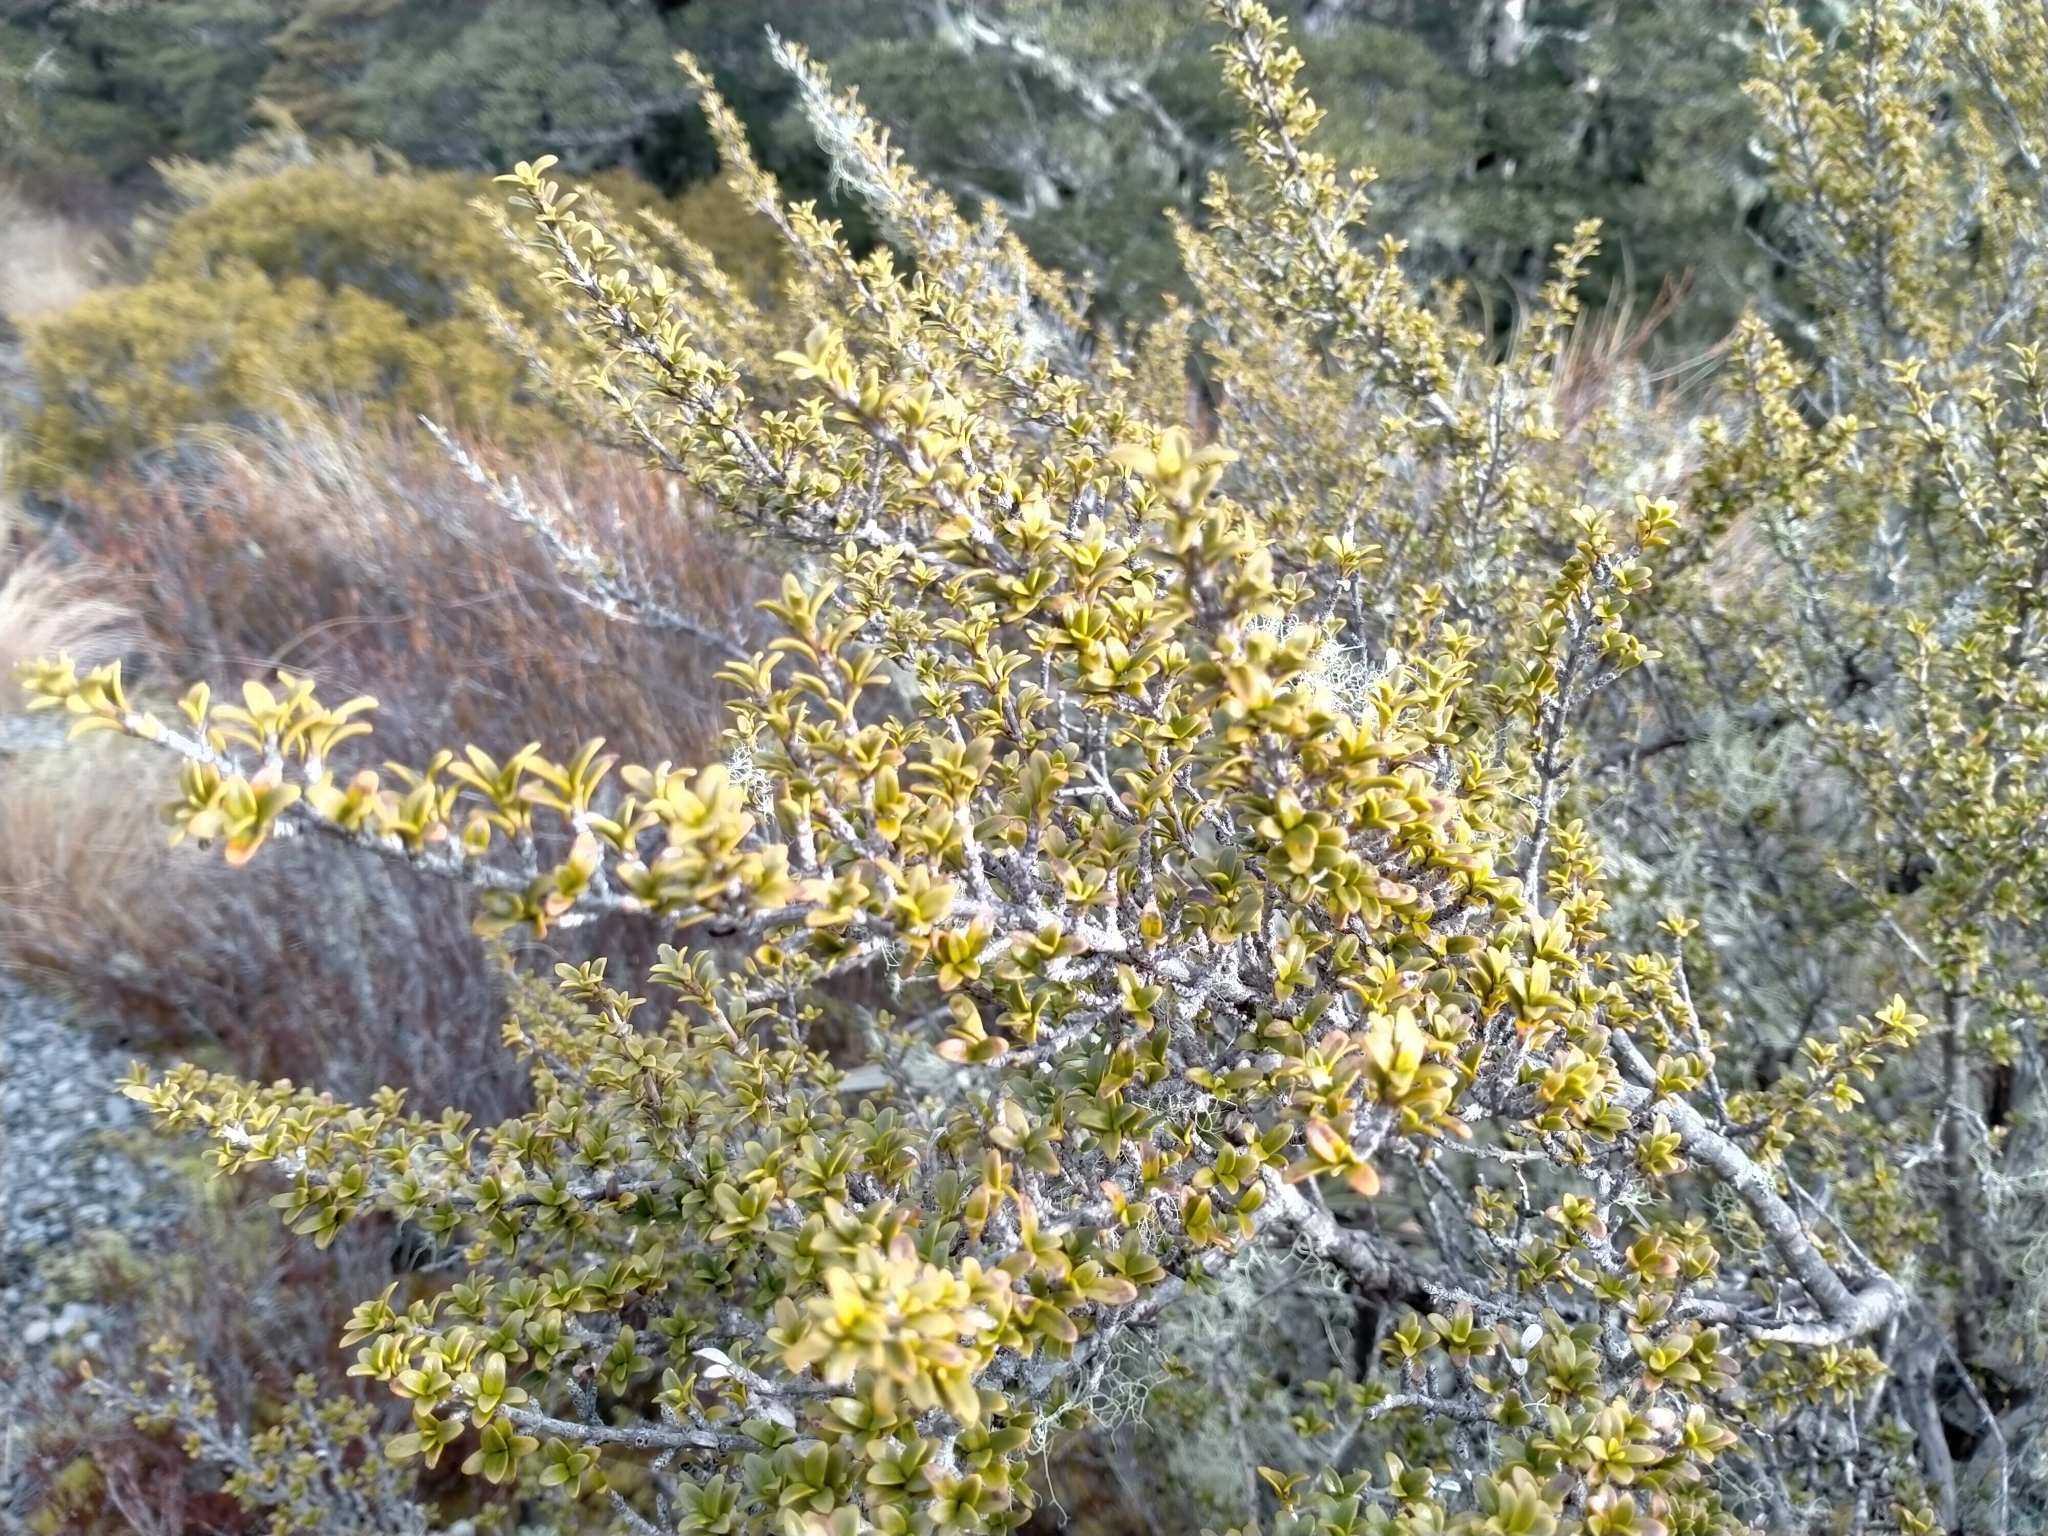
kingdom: Plantae
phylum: Tracheophyta
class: Magnoliopsida
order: Gentianales
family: Rubiaceae
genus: Coprosma
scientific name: Coprosma pseudocuneata
